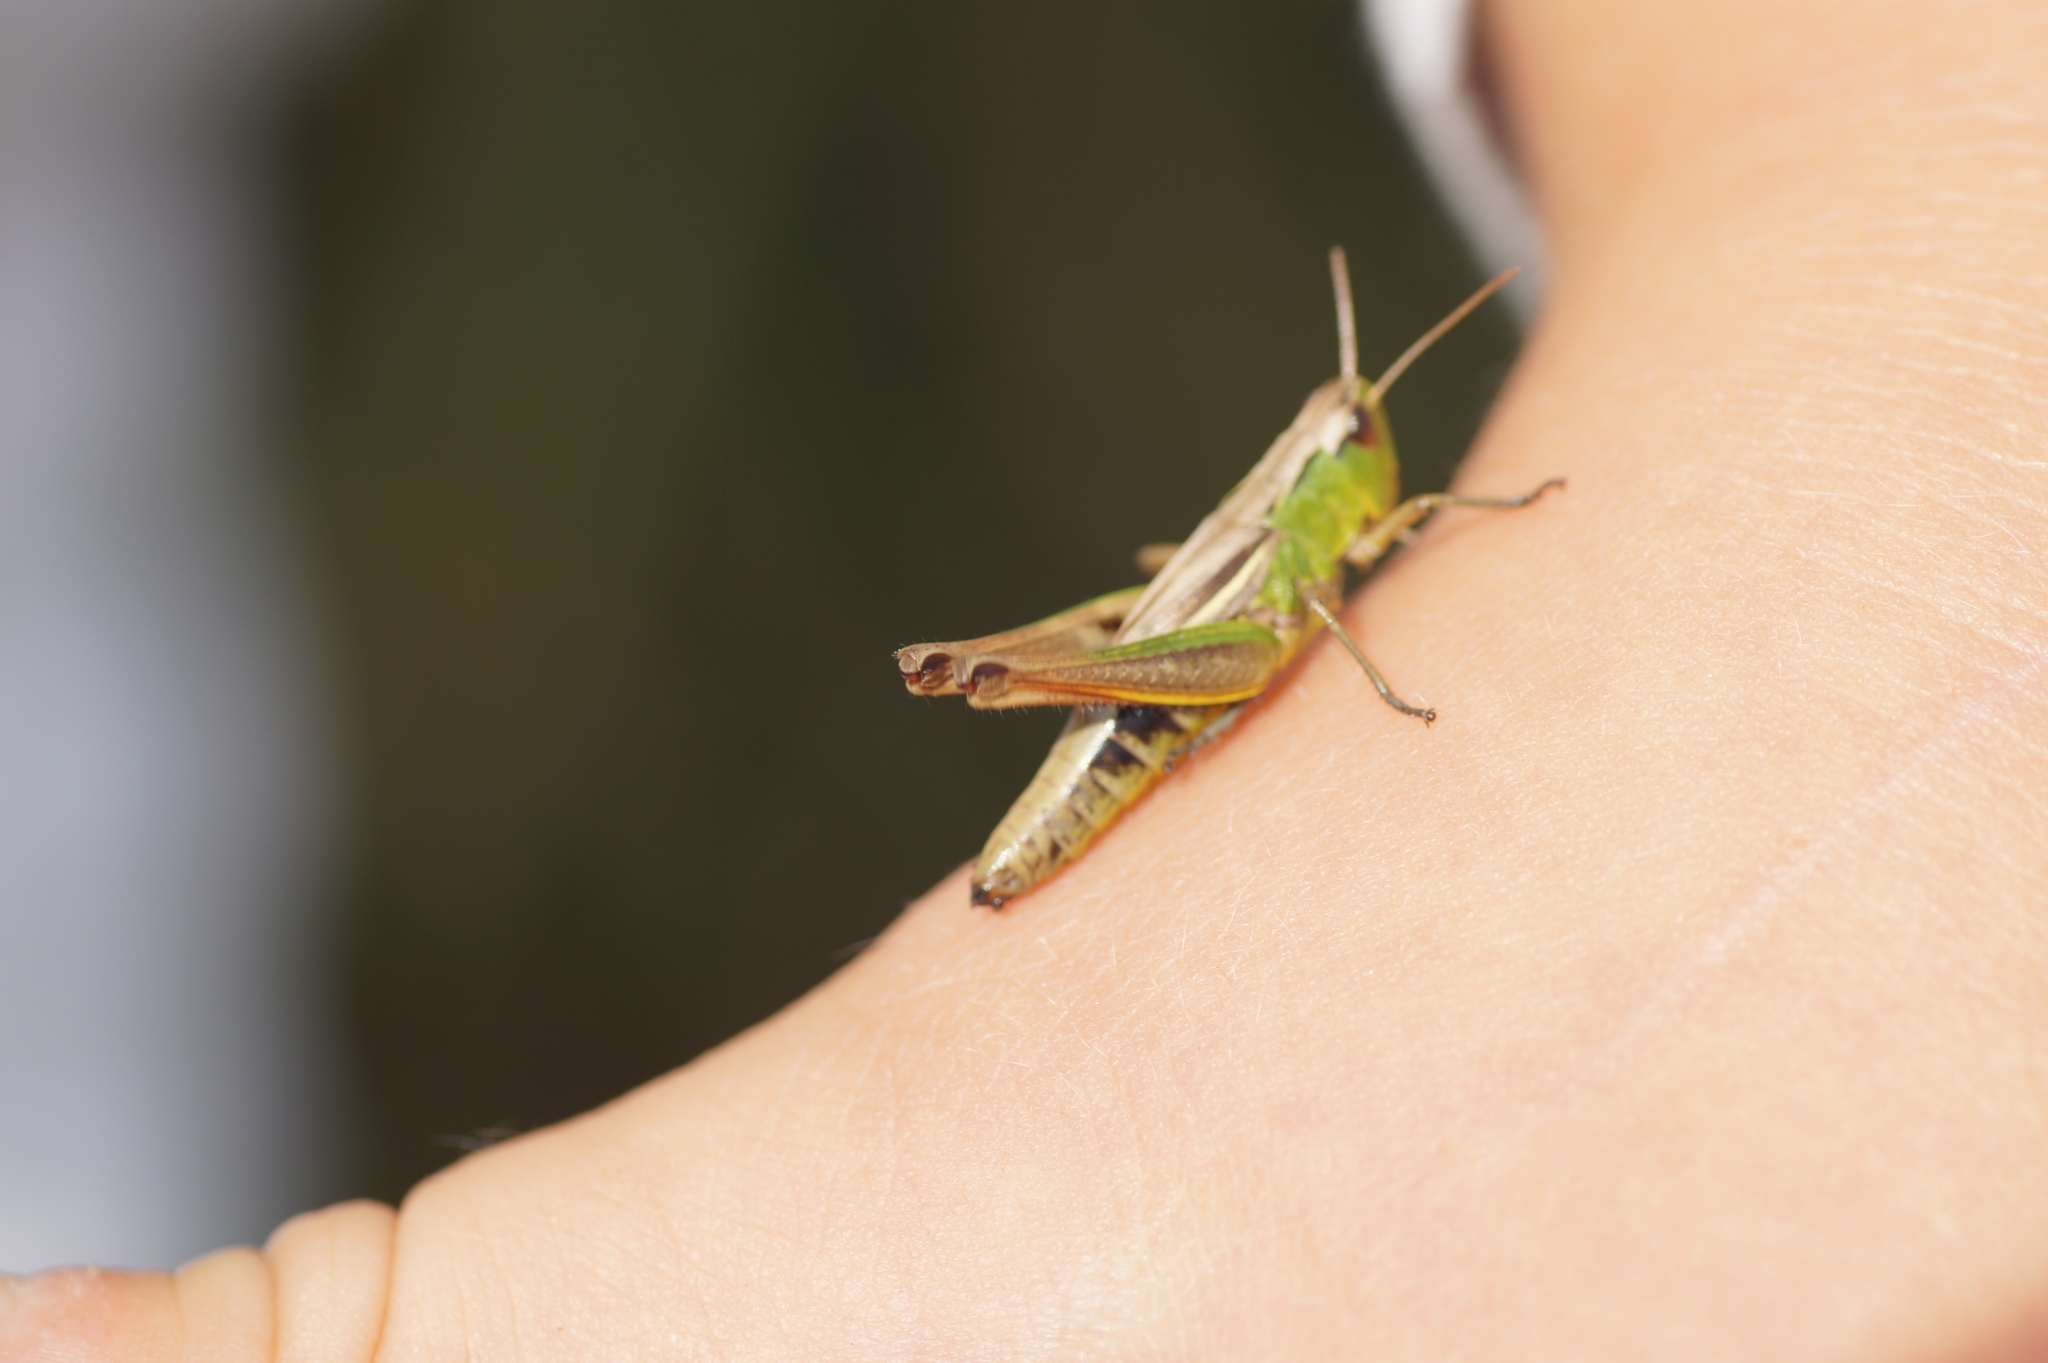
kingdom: Animalia
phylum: Arthropoda
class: Insecta
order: Orthoptera
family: Acrididae
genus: Pseudochorthippus
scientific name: Pseudochorthippus parallelus
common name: Meadow grasshopper
